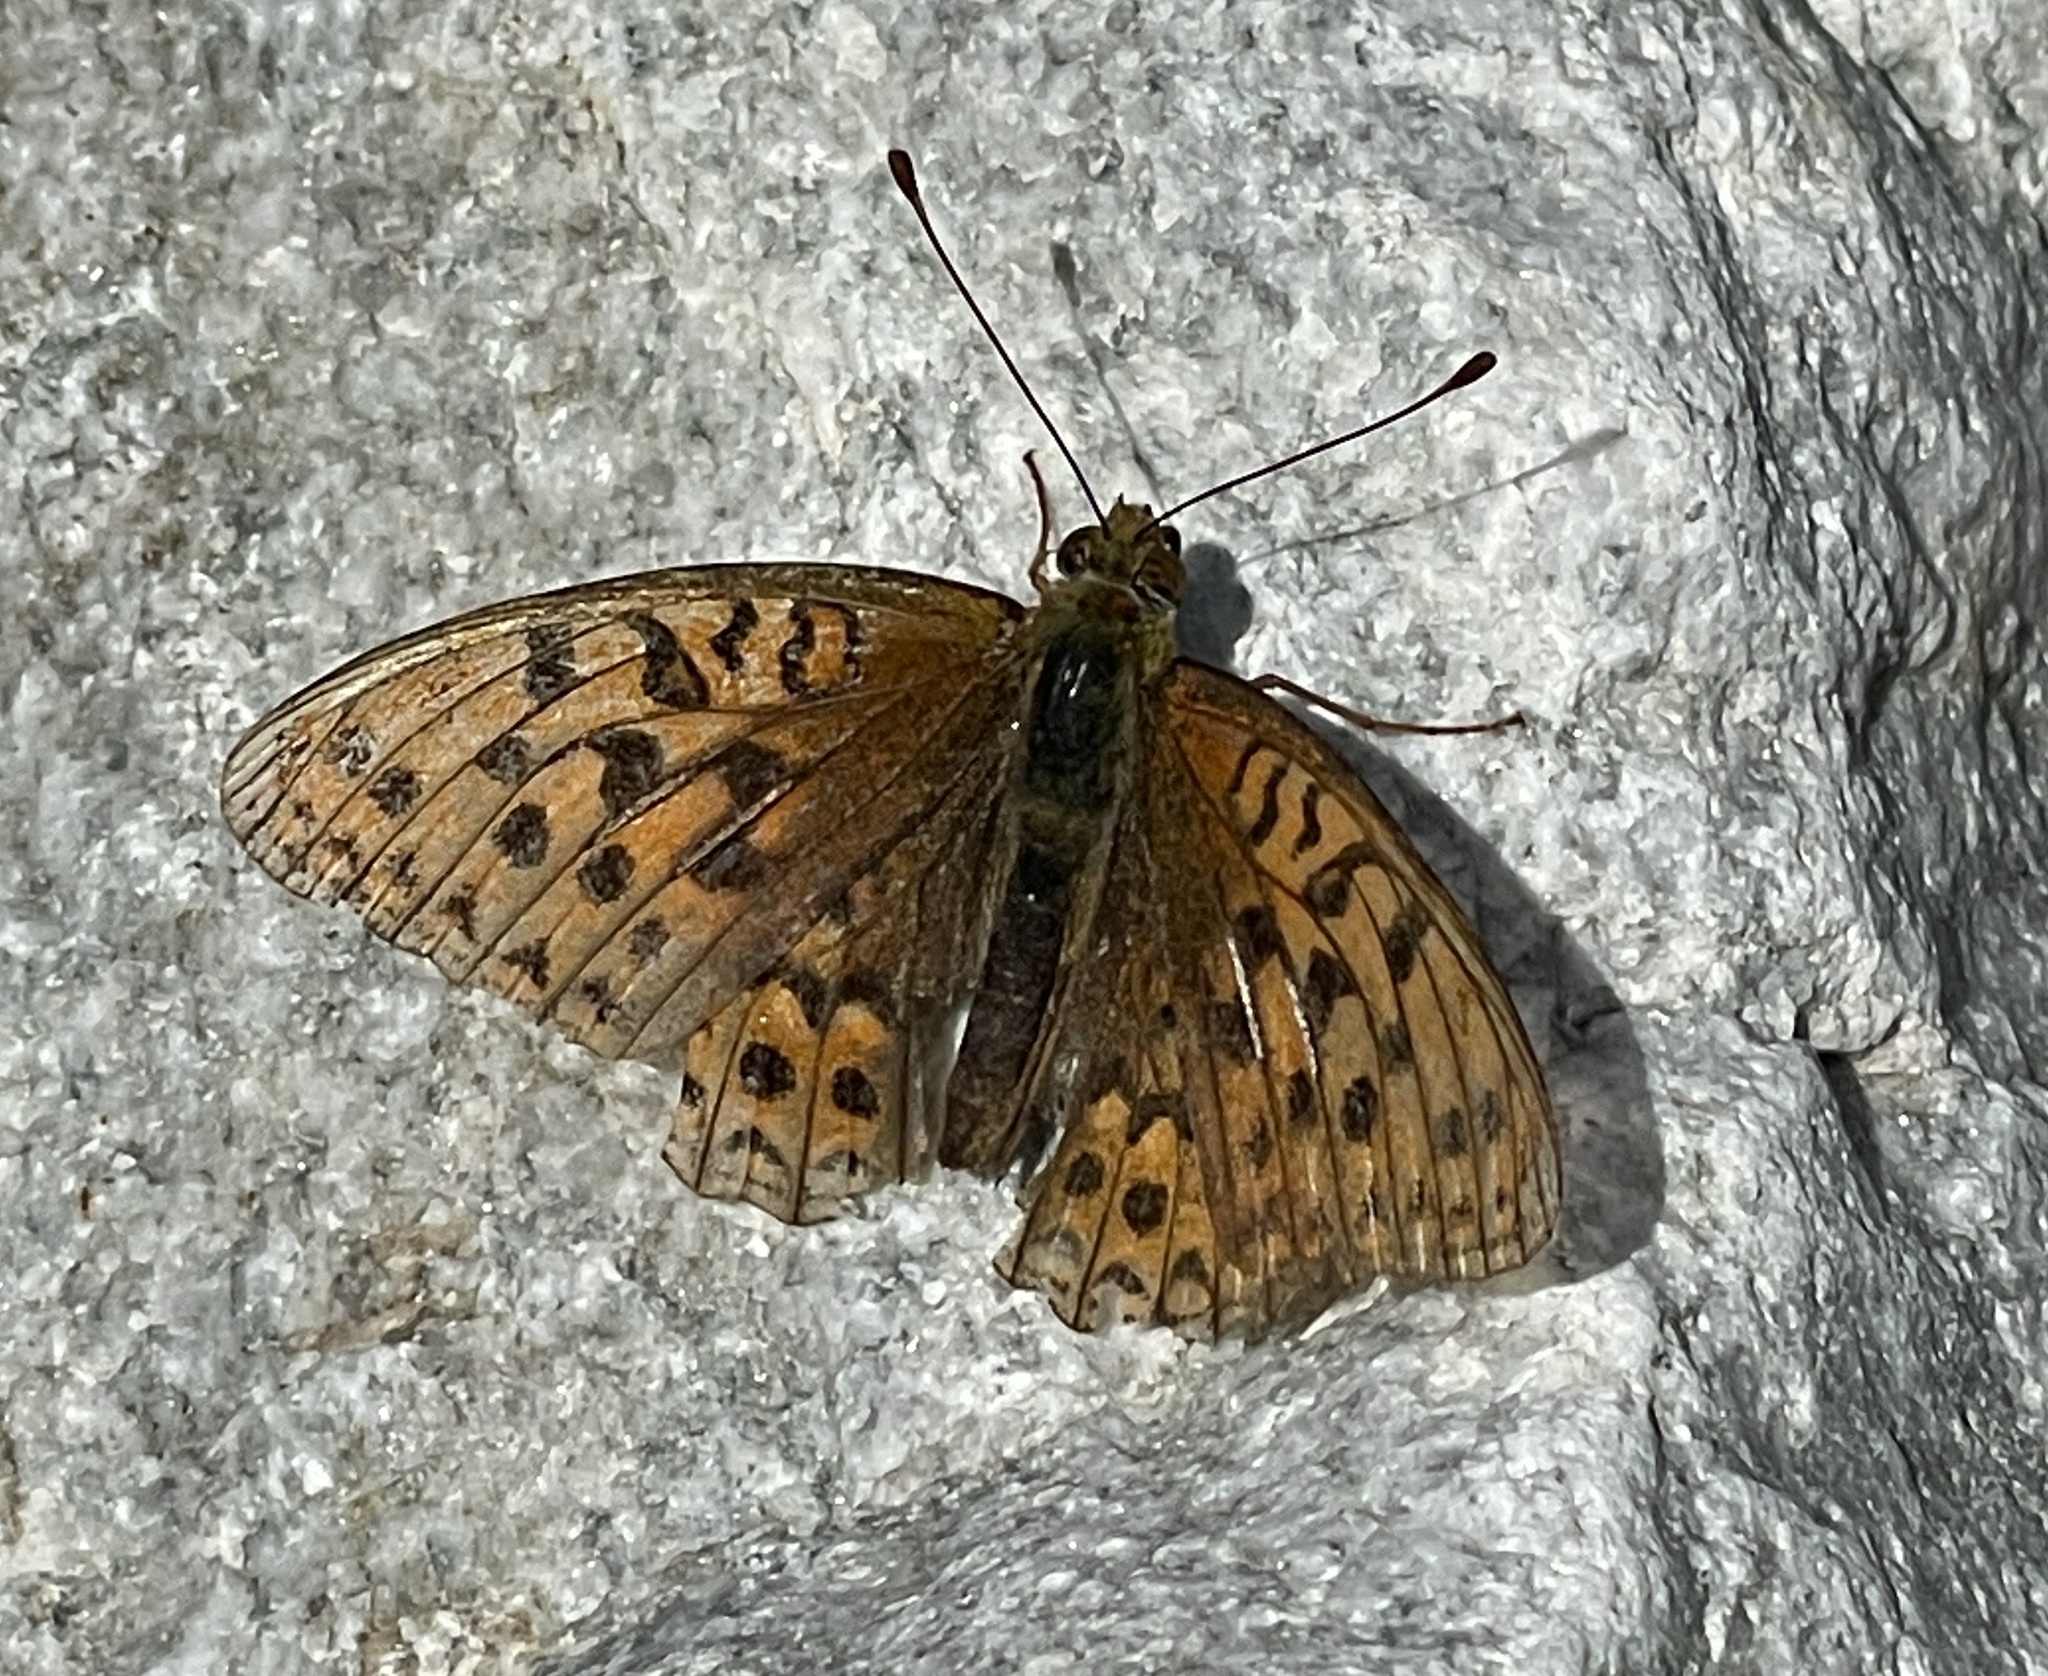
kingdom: Animalia
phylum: Arthropoda
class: Insecta
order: Lepidoptera
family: Nymphalidae
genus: Fabriciana
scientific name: Fabriciana adippe
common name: High brown fritillary
